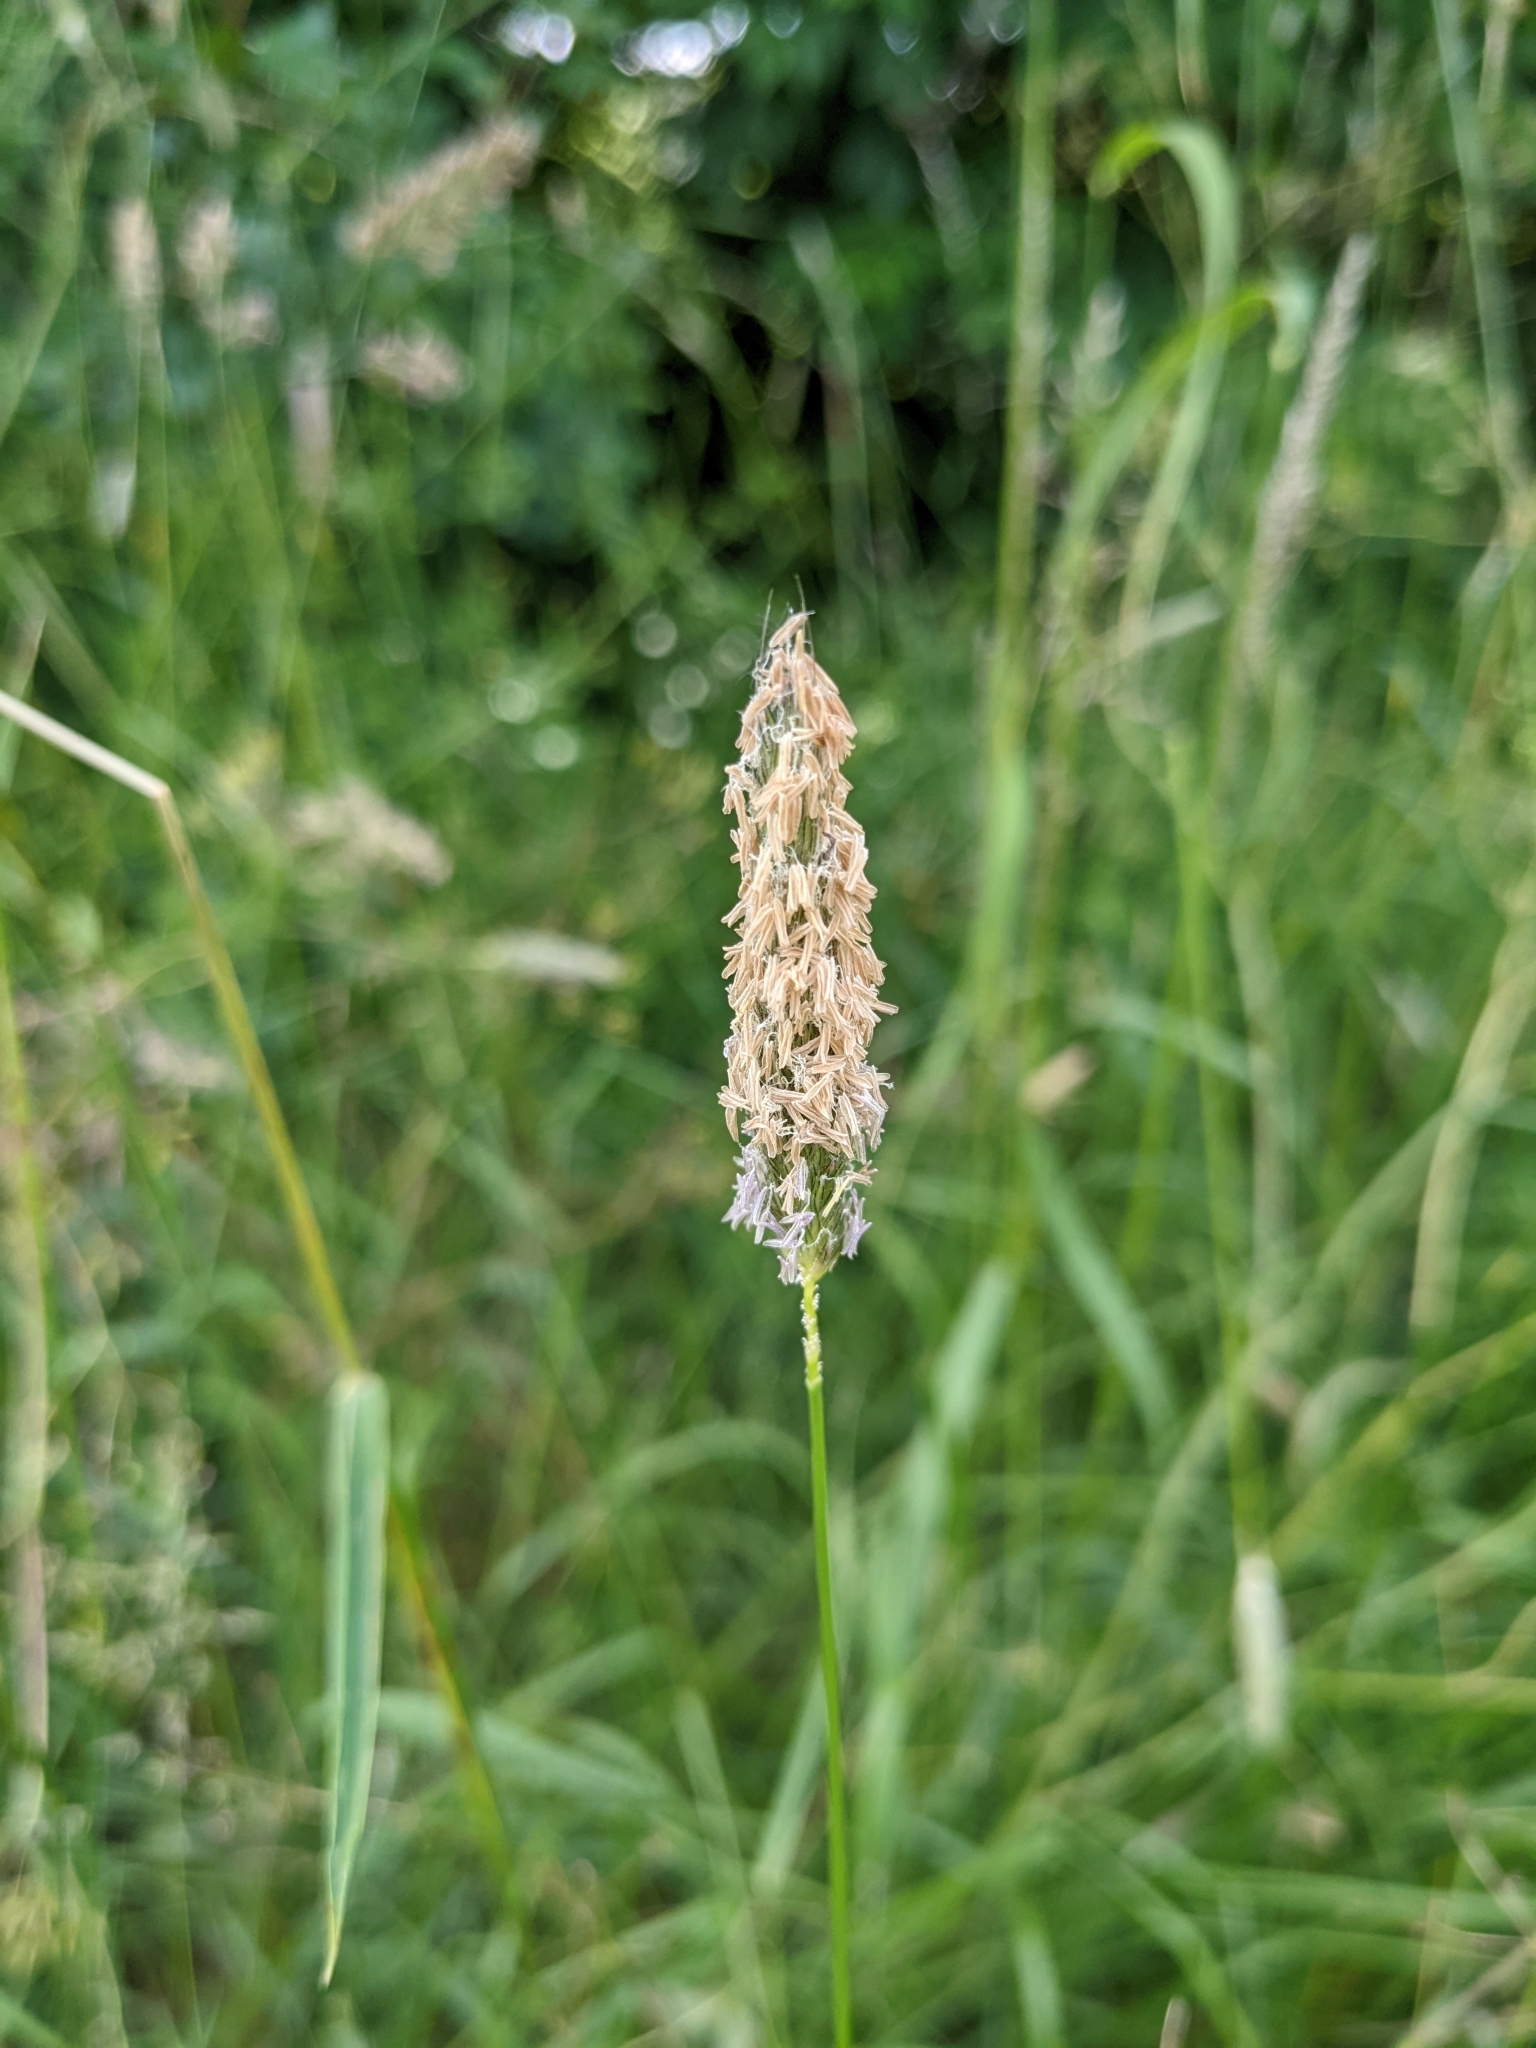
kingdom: Plantae
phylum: Tracheophyta
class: Liliopsida
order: Poales
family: Poaceae
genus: Alopecurus
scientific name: Alopecurus pratensis
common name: Meadow foxtail
